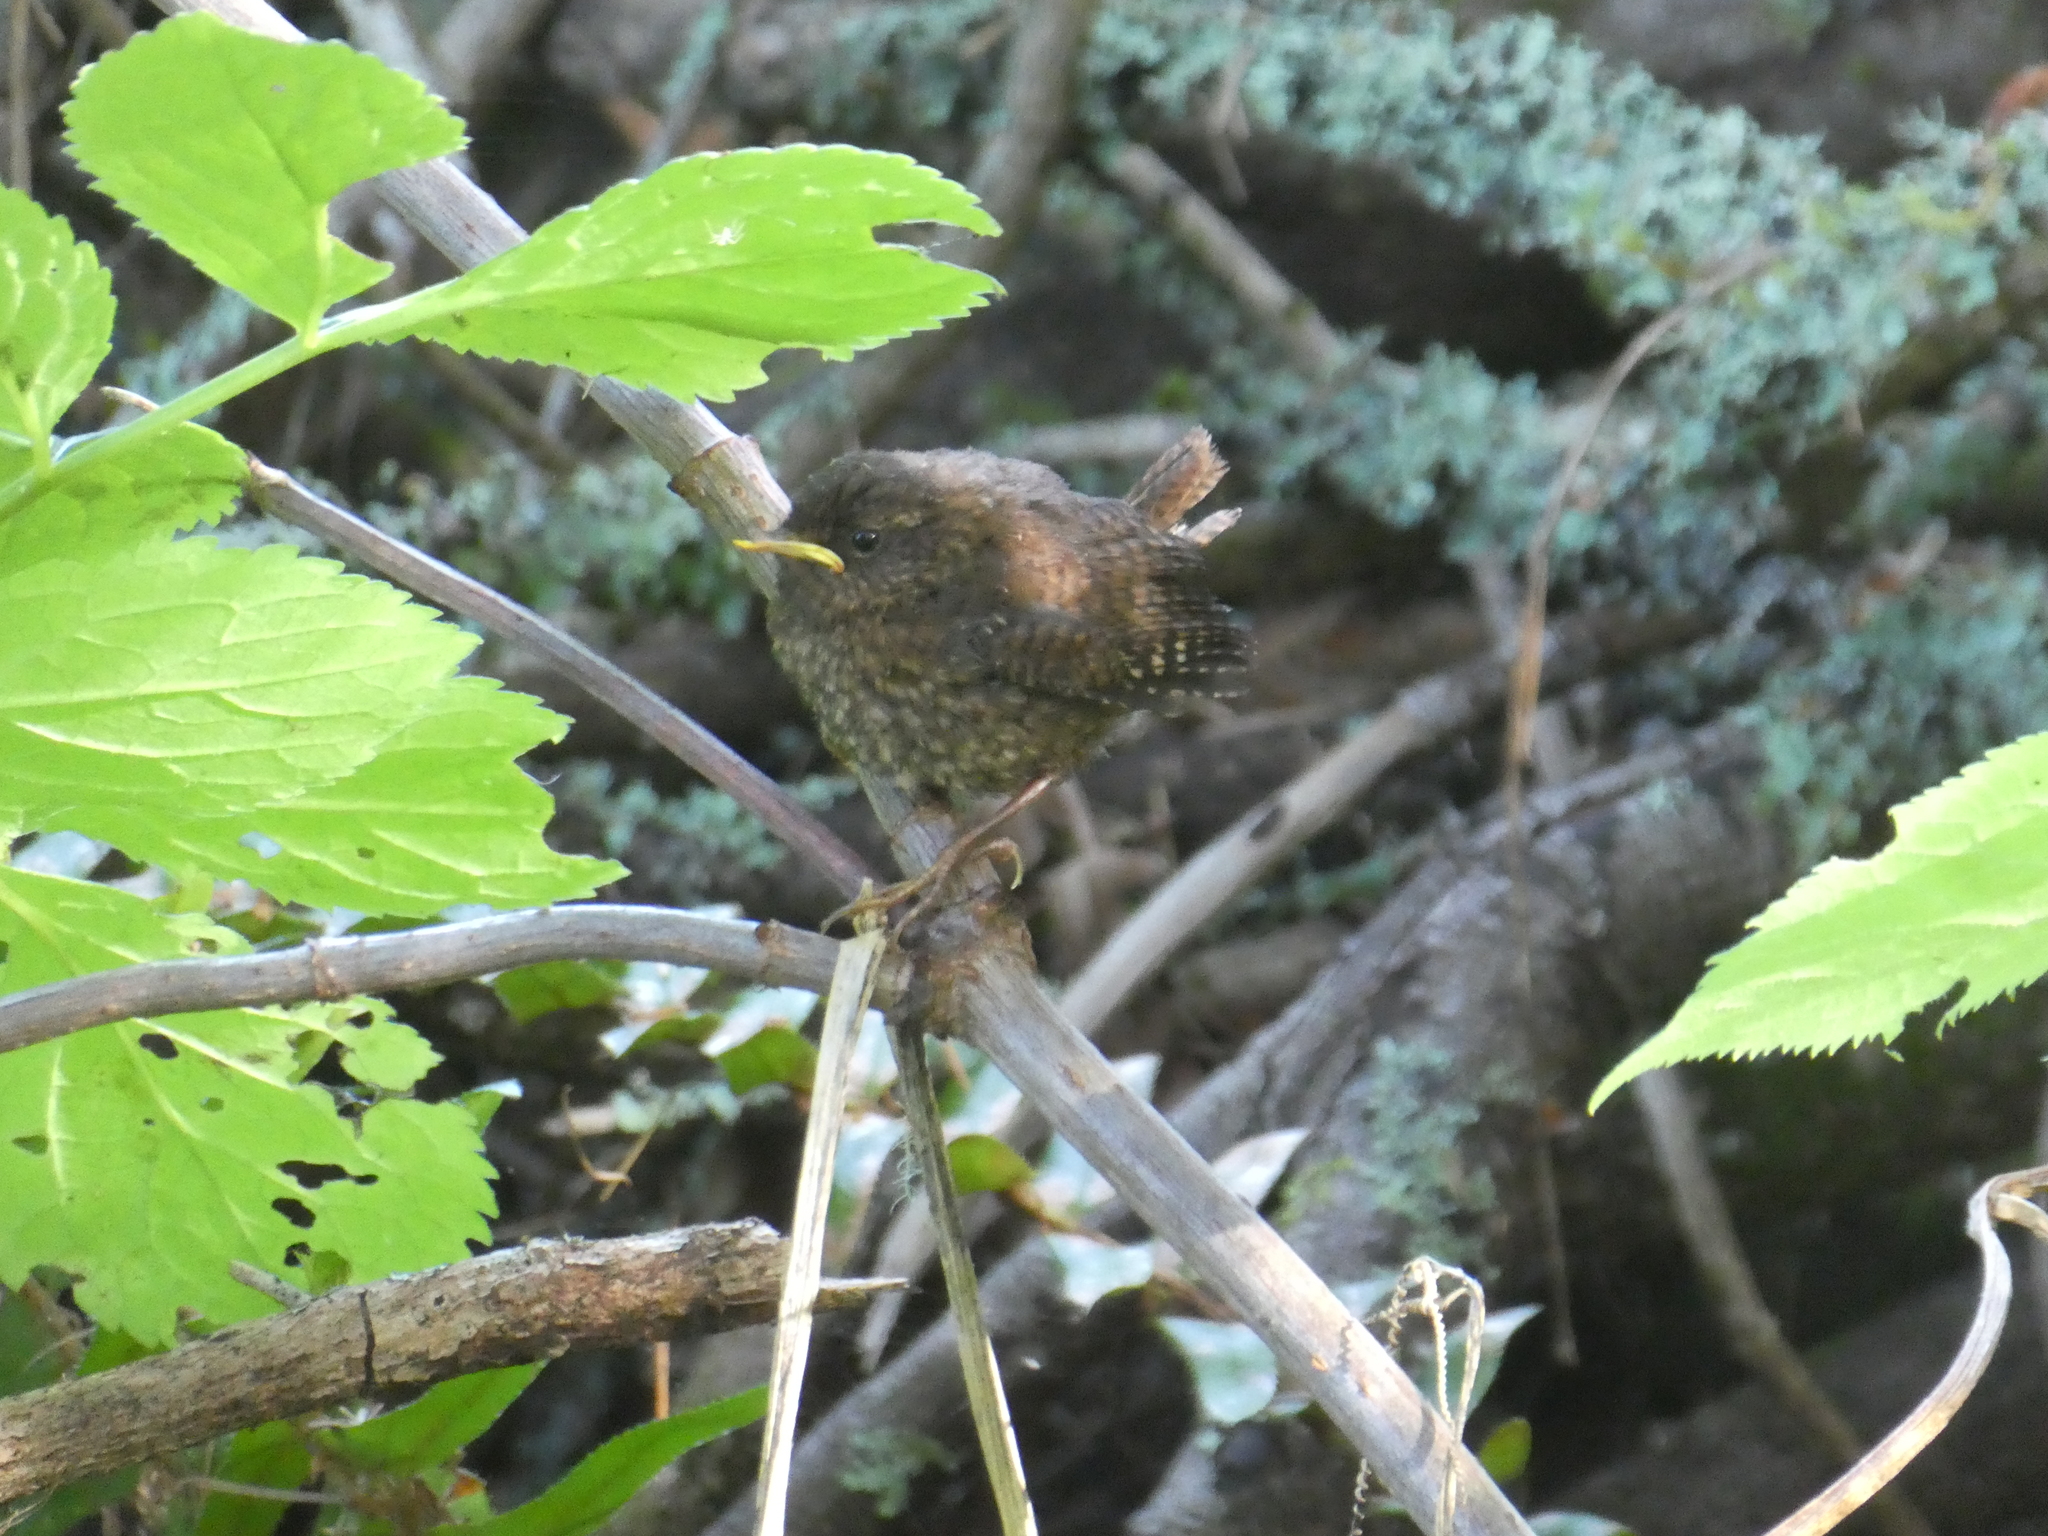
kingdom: Animalia
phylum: Chordata
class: Aves
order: Passeriformes
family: Troglodytidae
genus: Troglodytes
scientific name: Troglodytes pacificus
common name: Pacific wren
